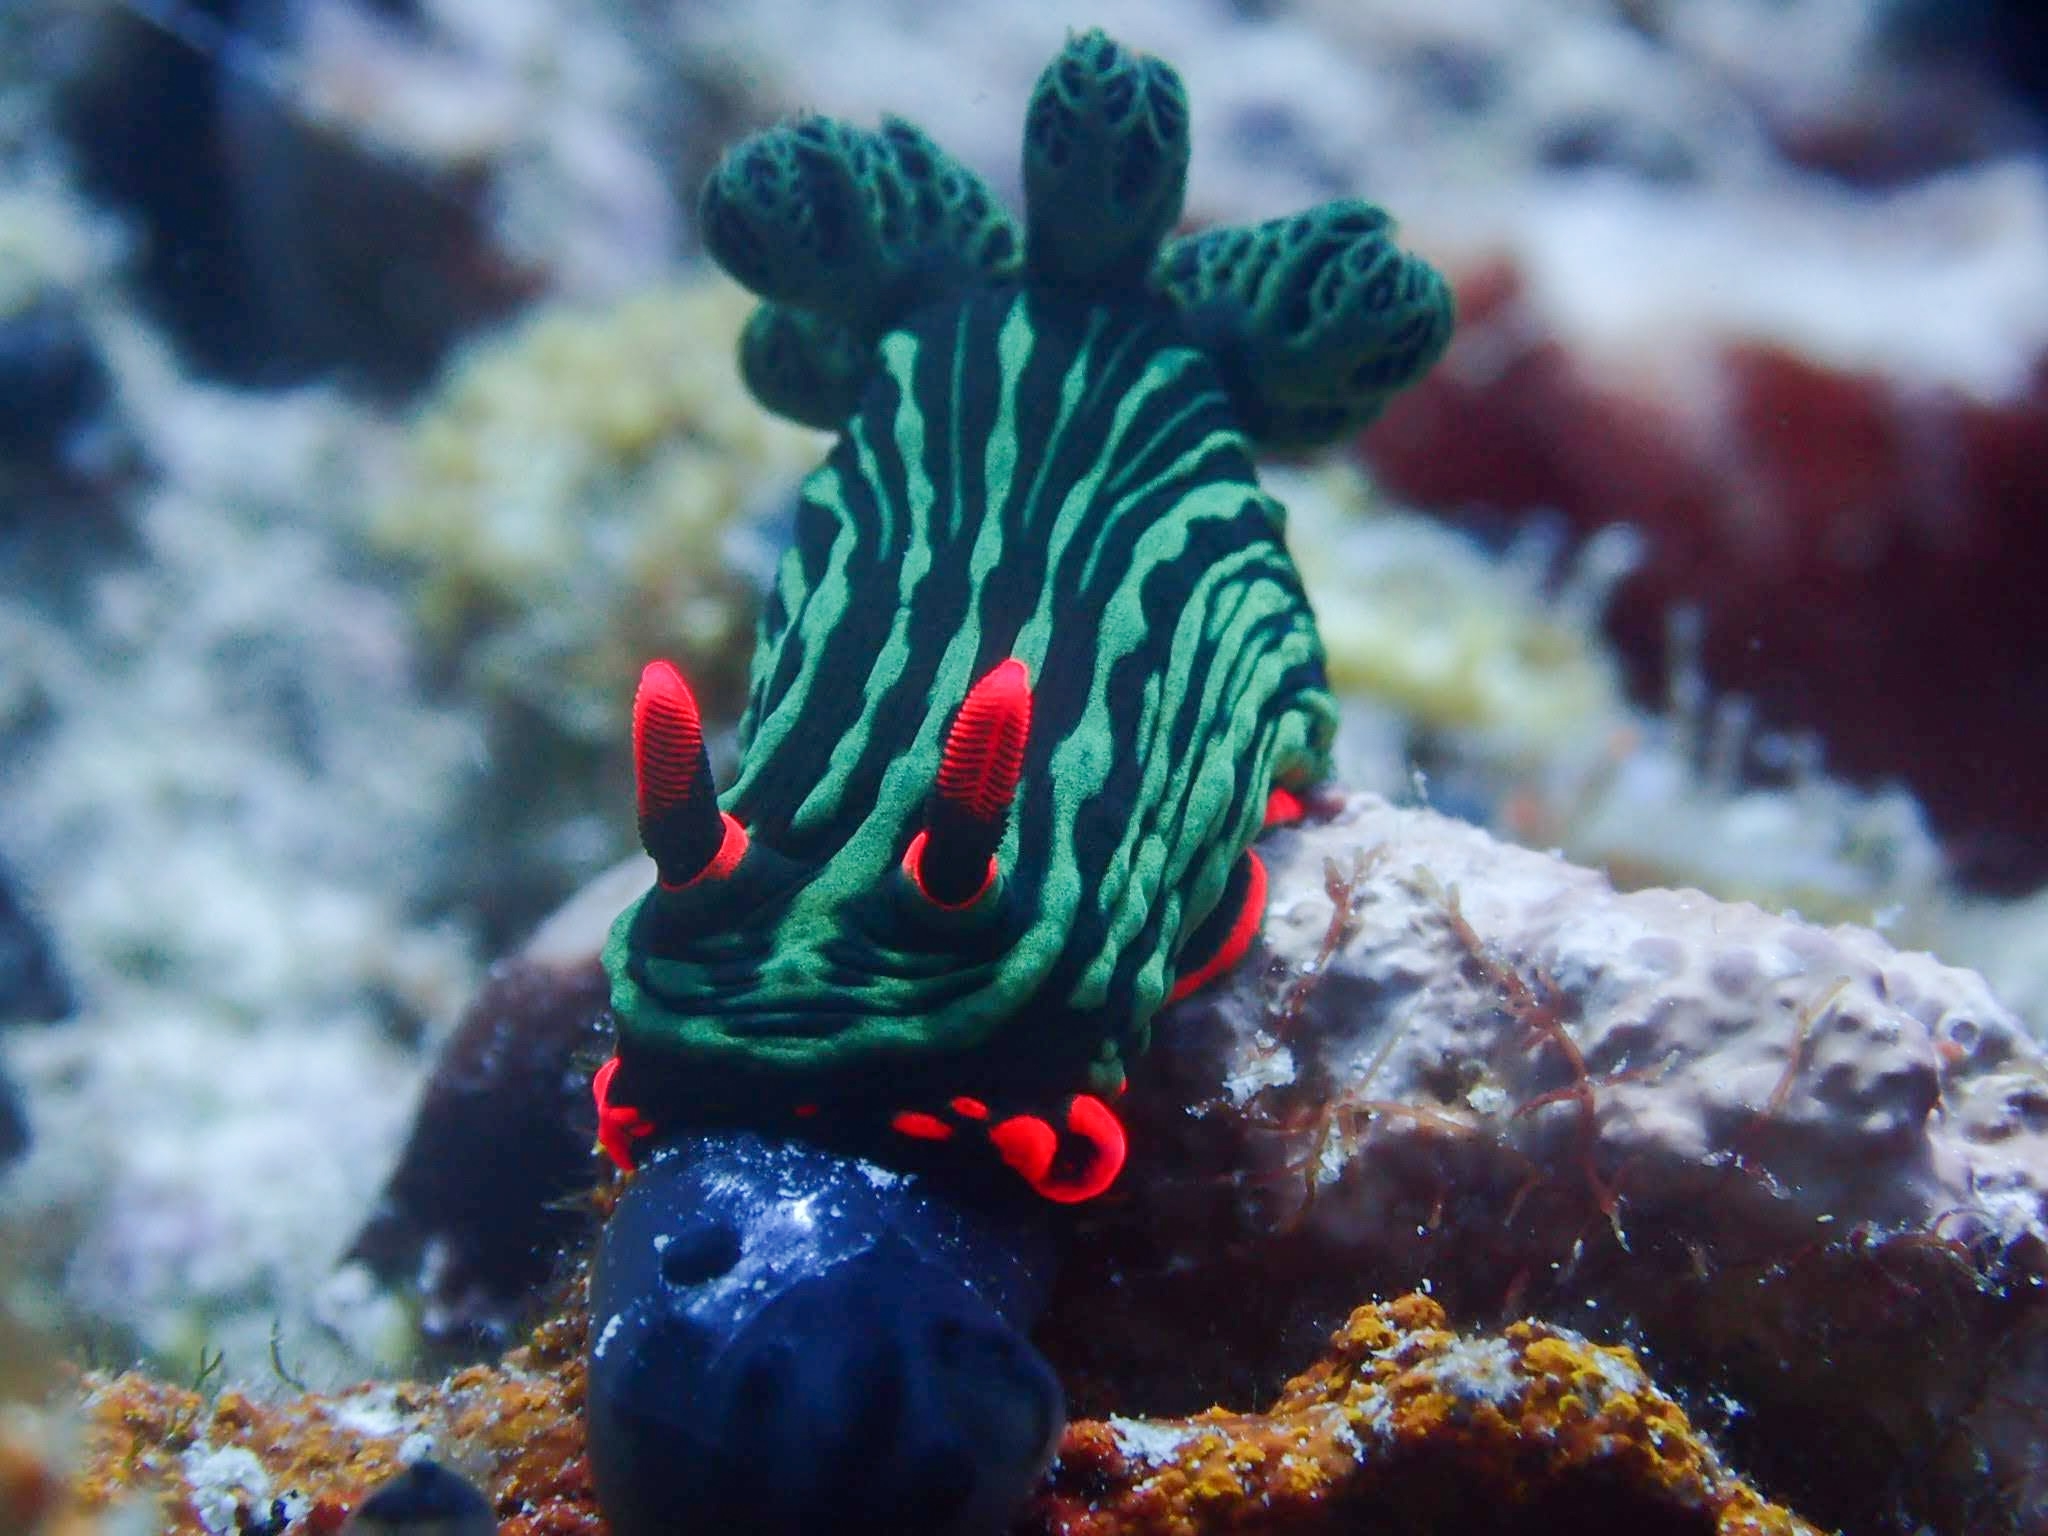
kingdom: Animalia
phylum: Mollusca
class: Gastropoda
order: Nudibranchia
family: Polyceridae
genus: Nembrotha
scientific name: Nembrotha kubaryana
